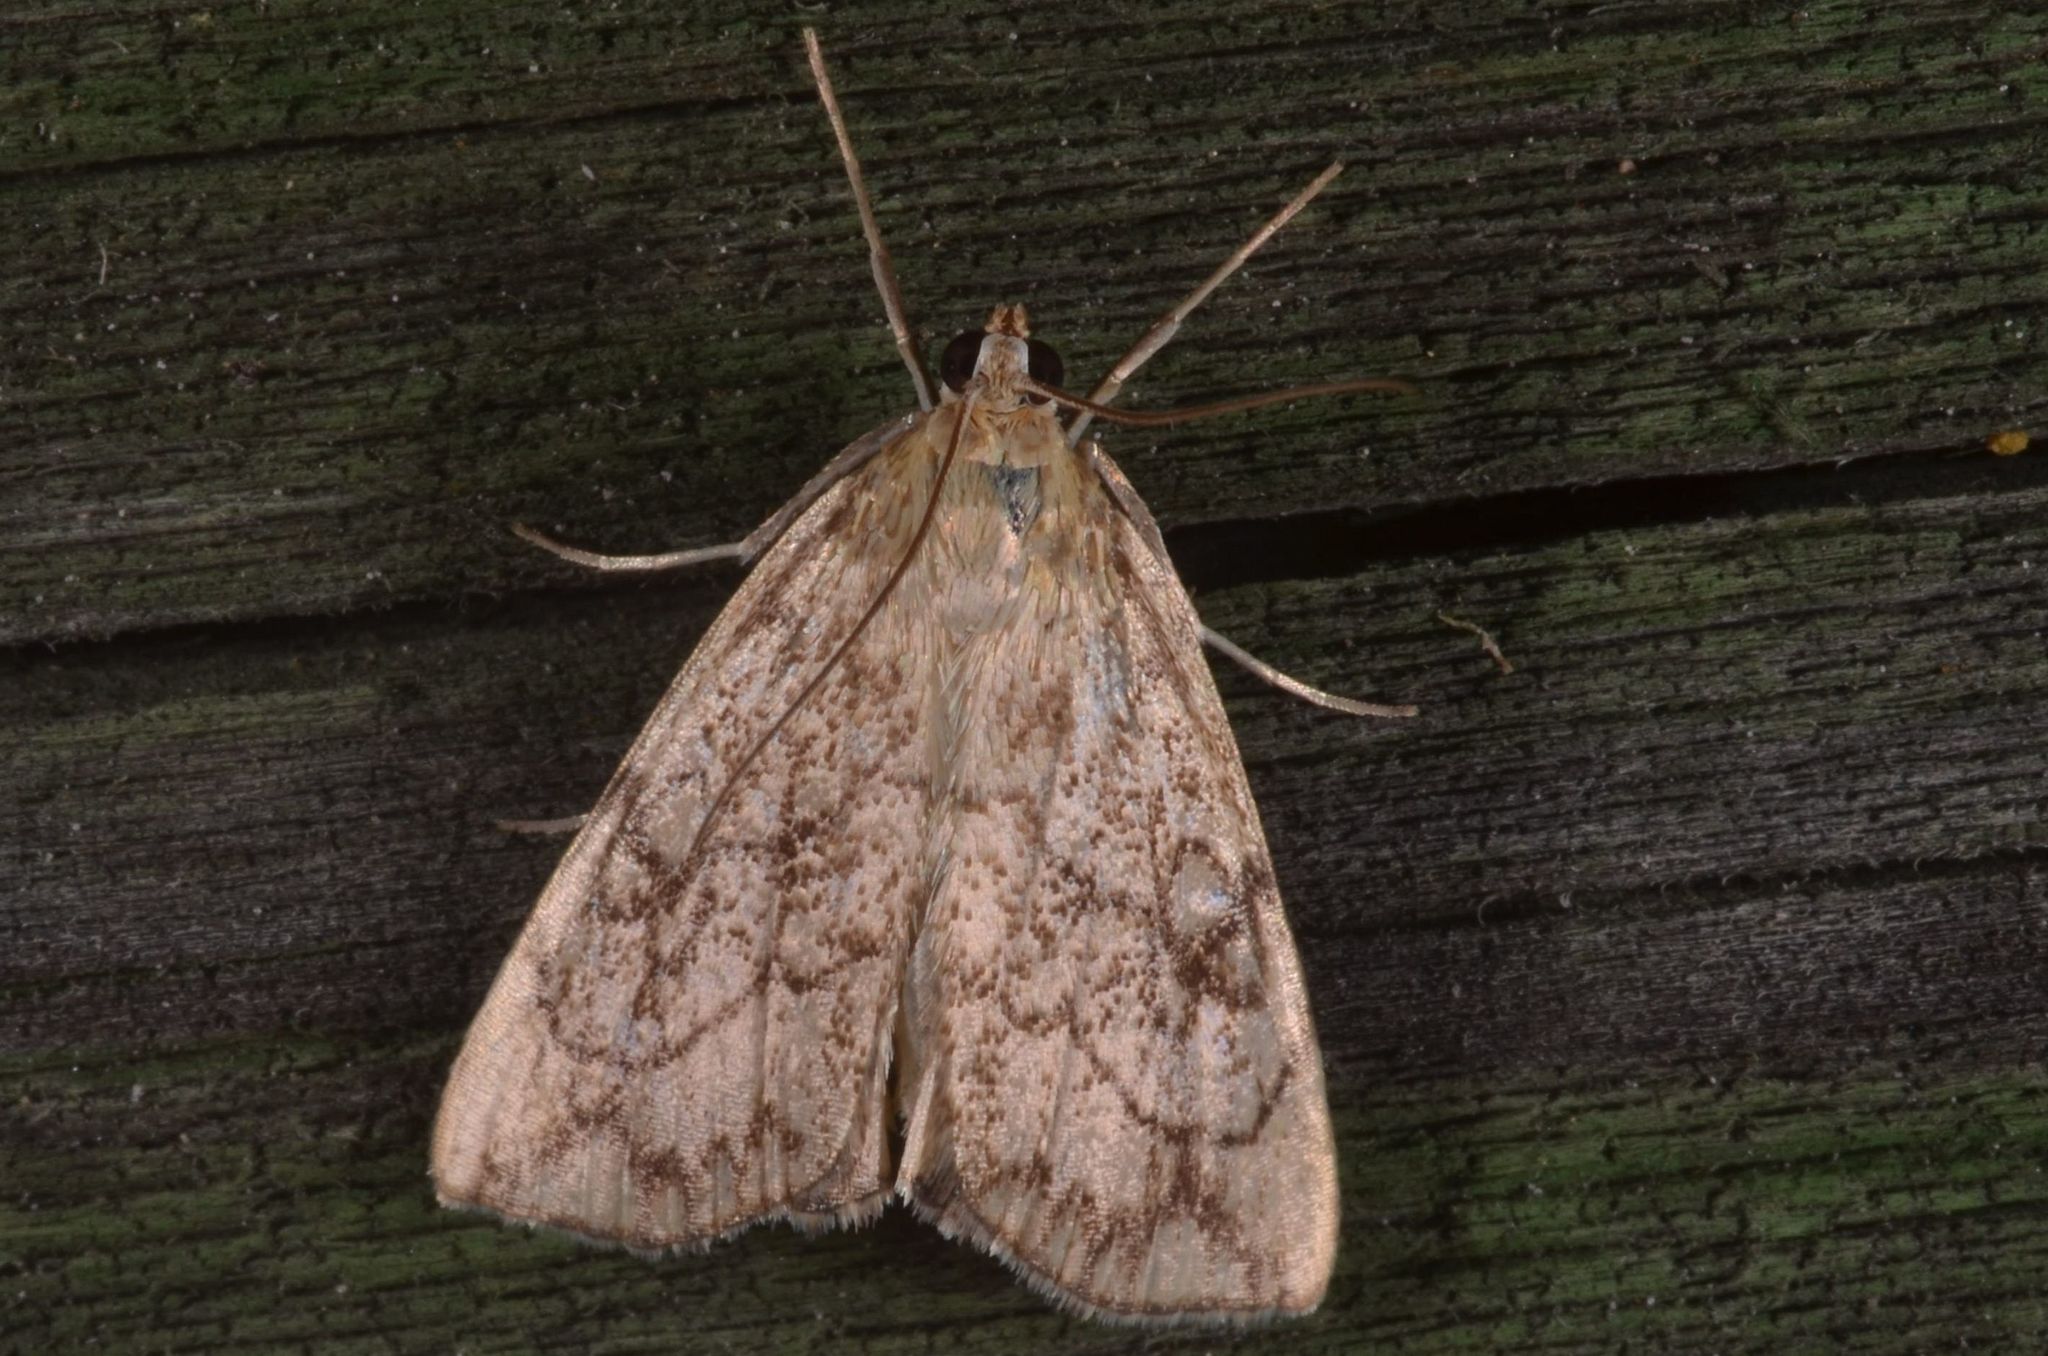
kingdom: Animalia
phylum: Arthropoda
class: Insecta
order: Lepidoptera
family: Crambidae
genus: Evergestis
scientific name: Evergestis pallidata
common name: Chequered pearl
